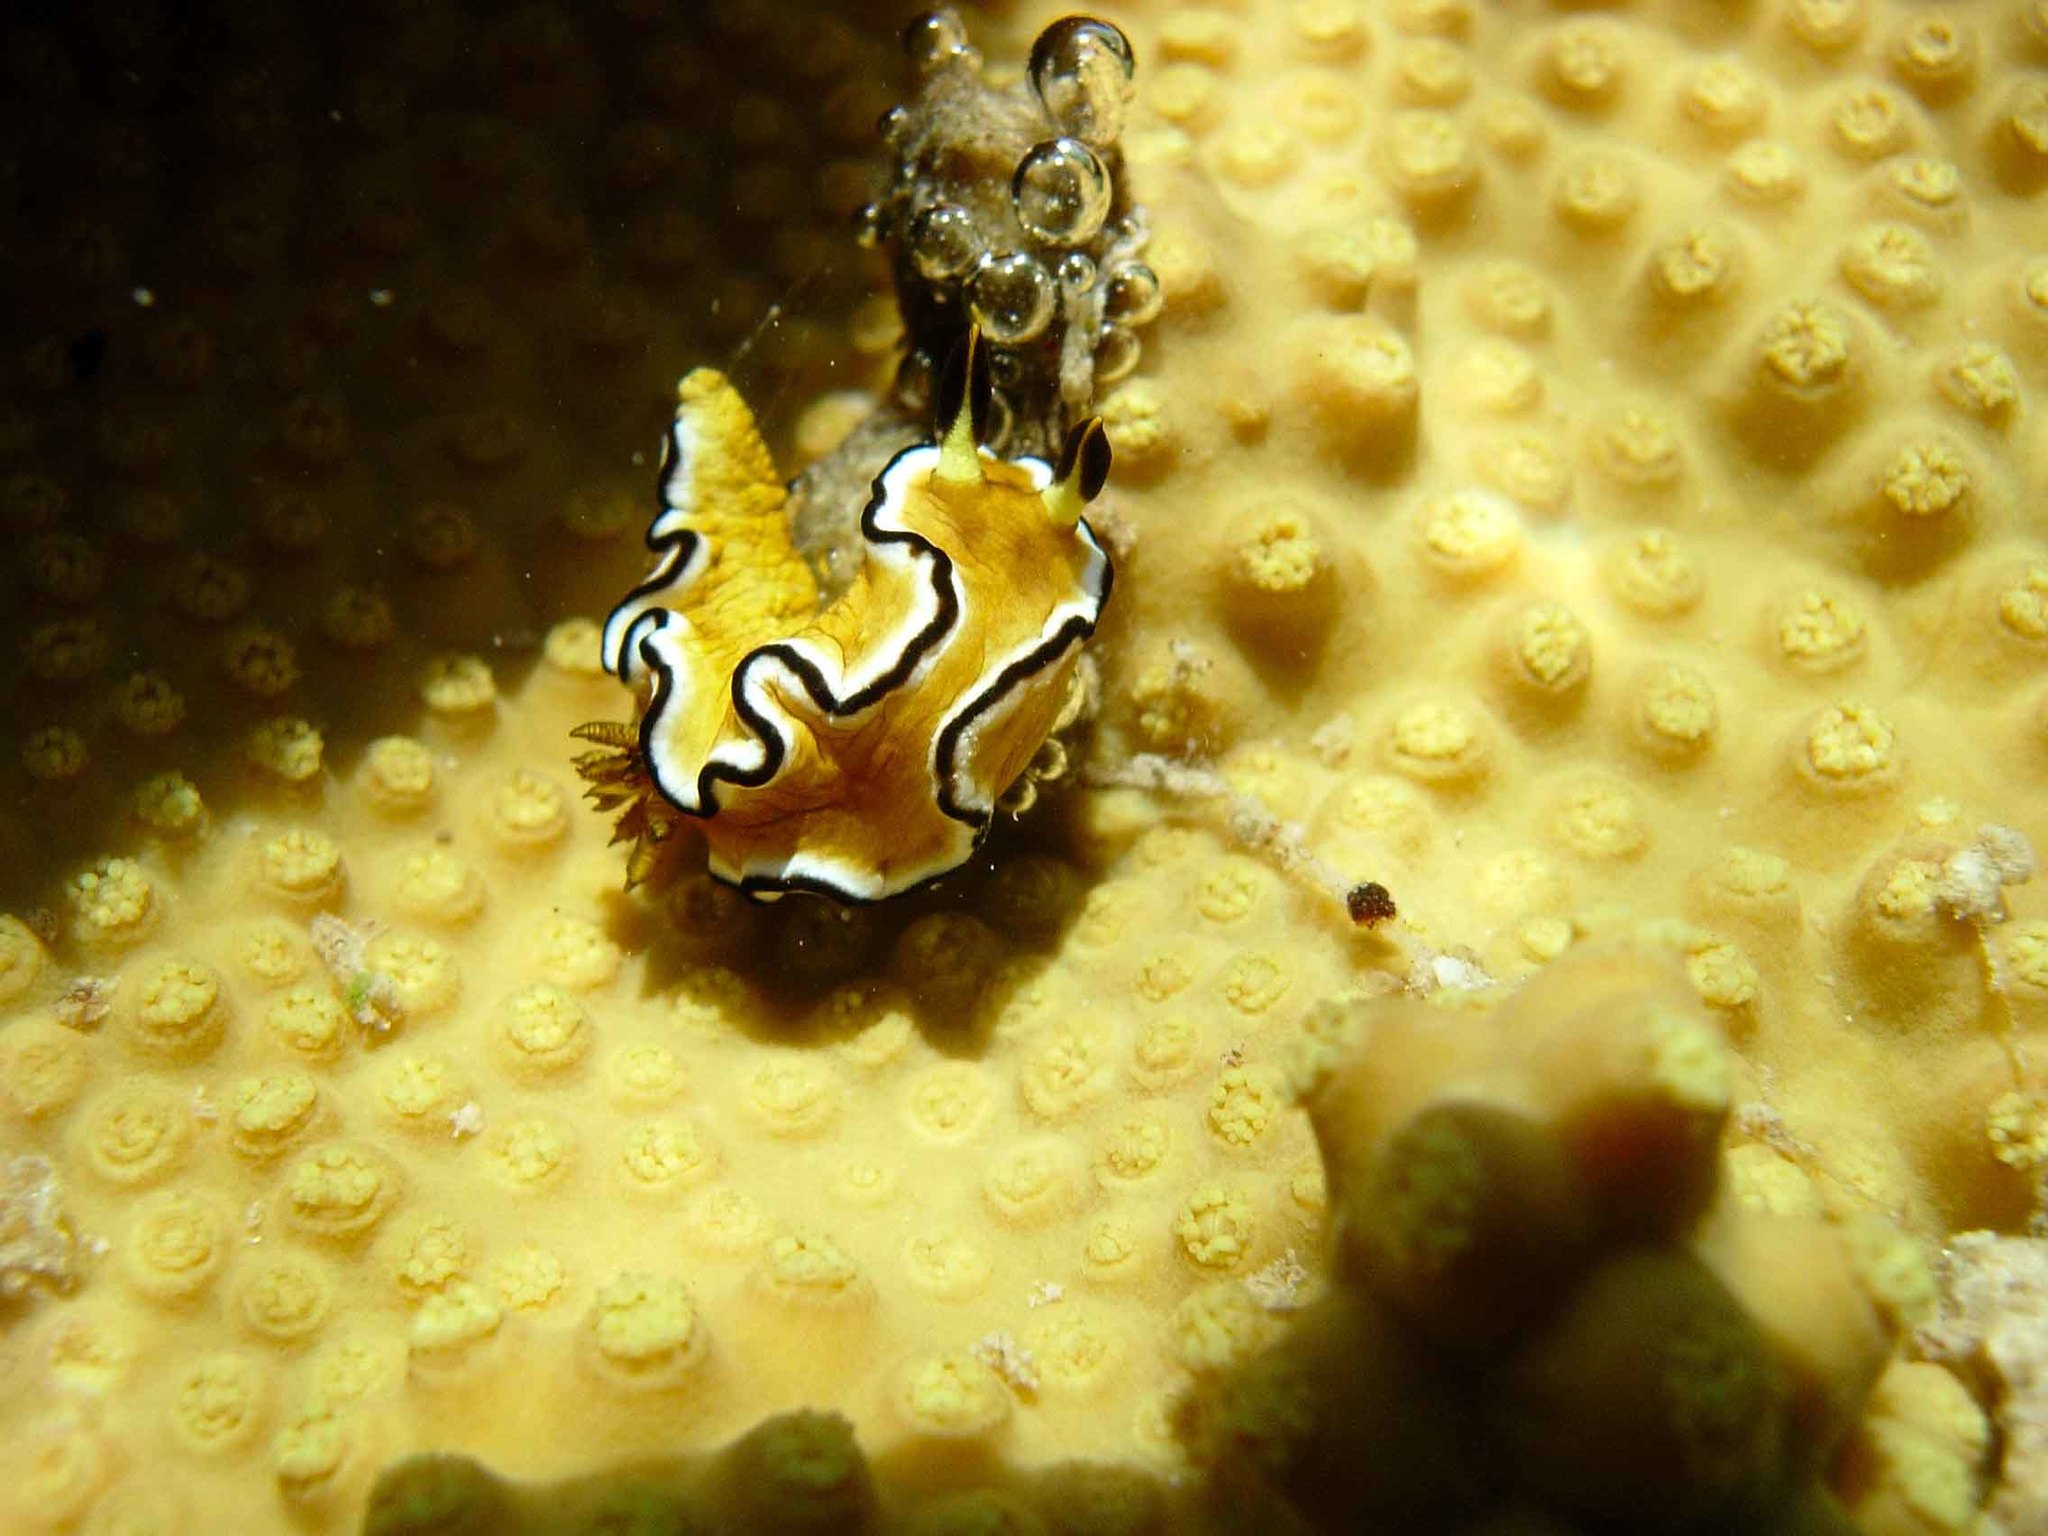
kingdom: Animalia
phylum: Mollusca
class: Gastropoda
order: Nudibranchia
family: Chromodorididae
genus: Doriprismatica
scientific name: Doriprismatica sibogae
